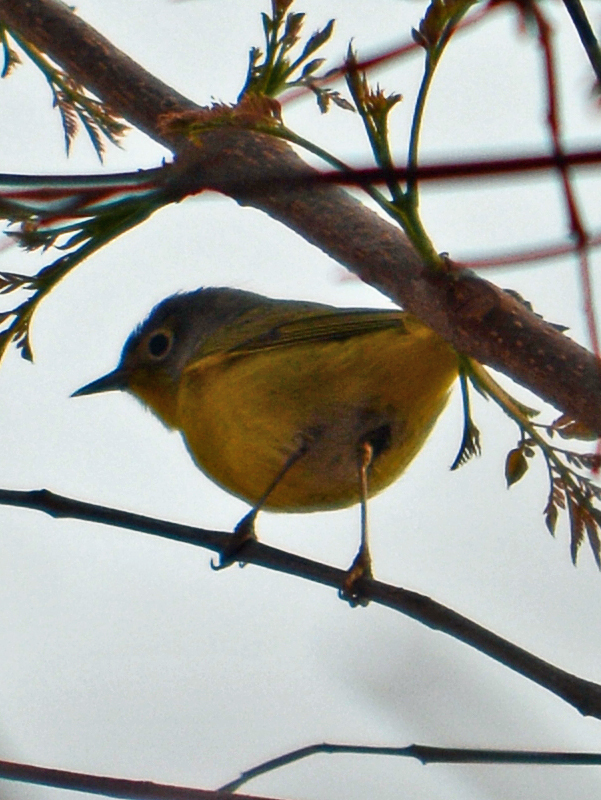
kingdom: Animalia
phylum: Chordata
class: Aves
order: Passeriformes
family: Parulidae
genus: Leiothlypis
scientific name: Leiothlypis ruficapilla
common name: Nashville warbler
